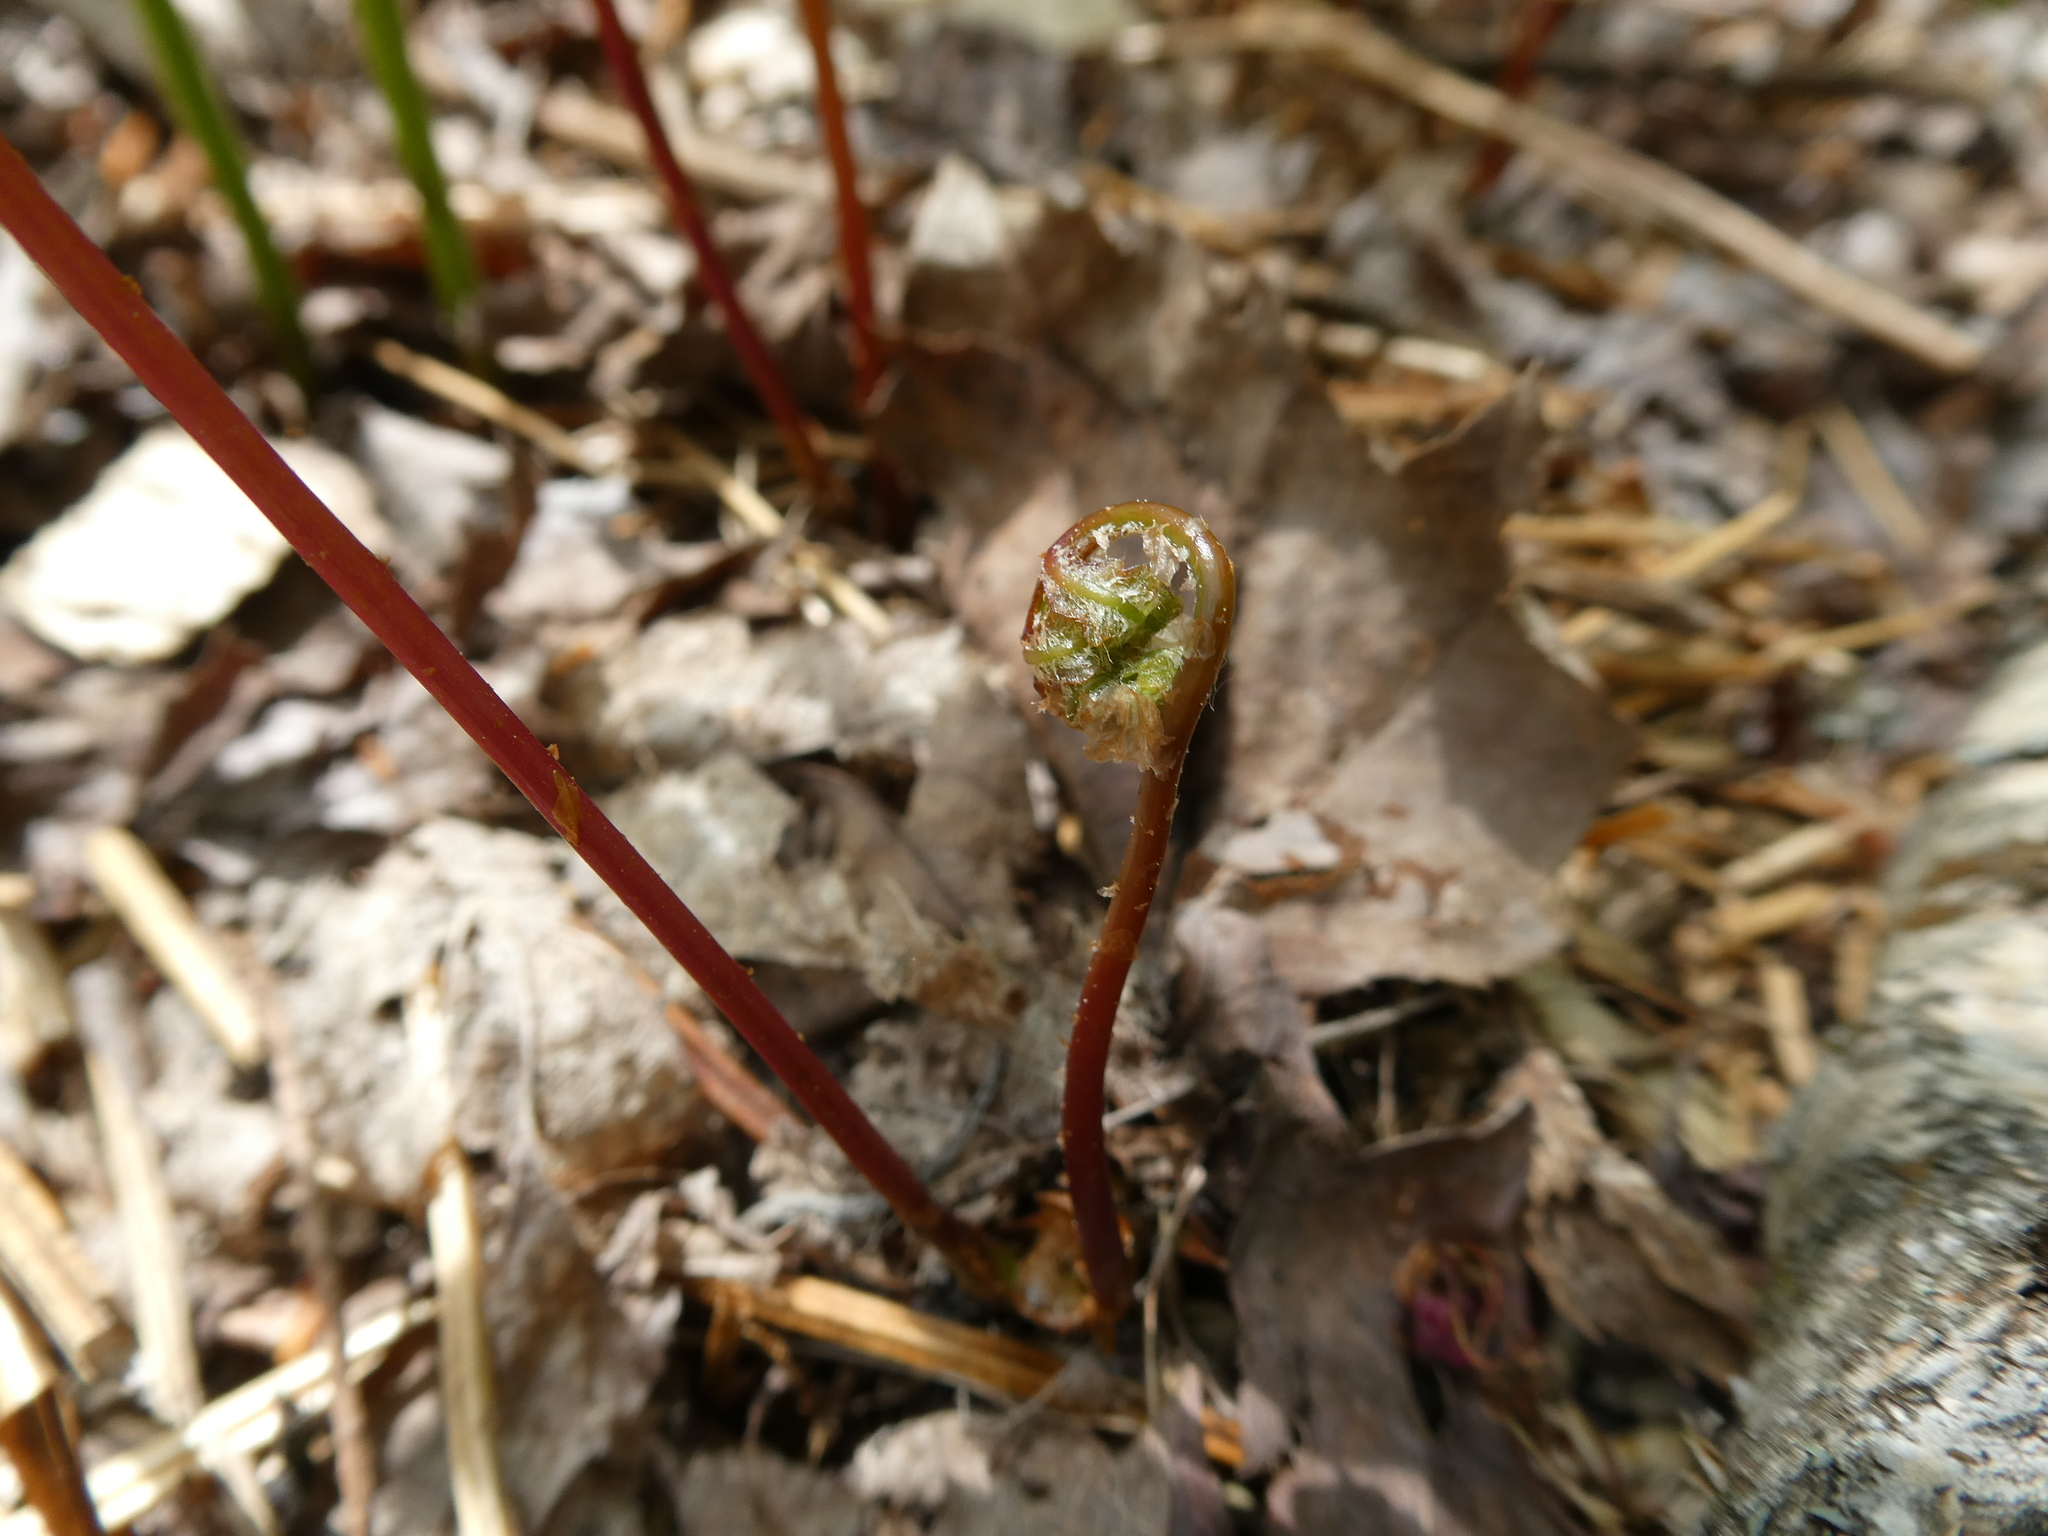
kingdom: Plantae
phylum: Tracheophyta
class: Polypodiopsida
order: Polypodiales
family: Onocleaceae
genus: Onoclea
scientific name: Onoclea sensibilis
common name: Sensitive fern
